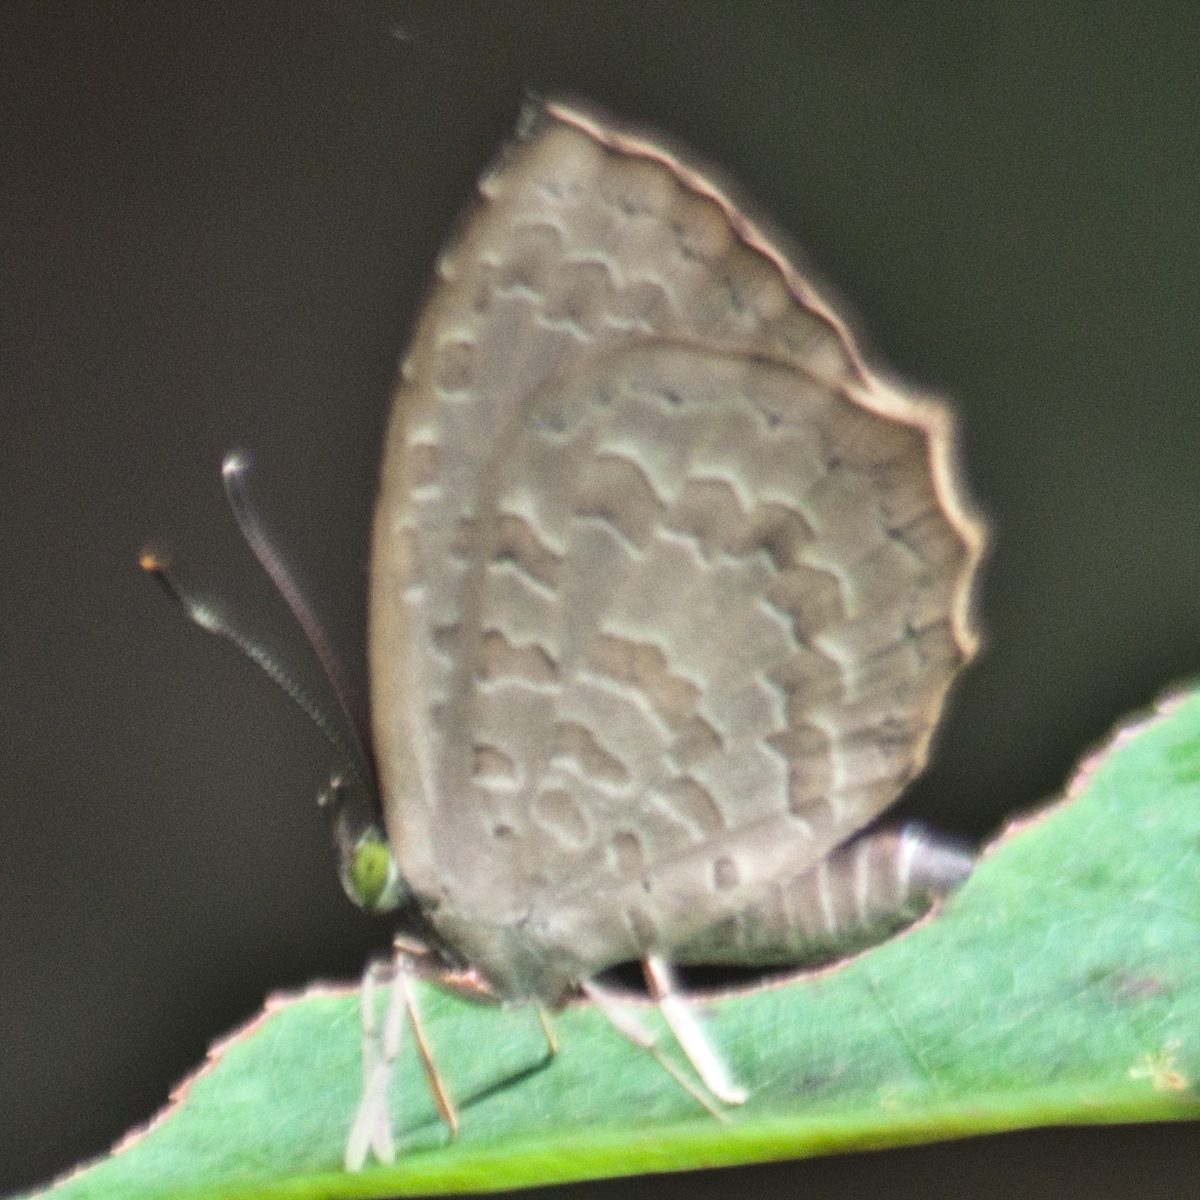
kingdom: Animalia
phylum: Arthropoda
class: Insecta
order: Lepidoptera
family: Lycaenidae
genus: Miletus
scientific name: Miletus chinensis
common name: Common brownie
